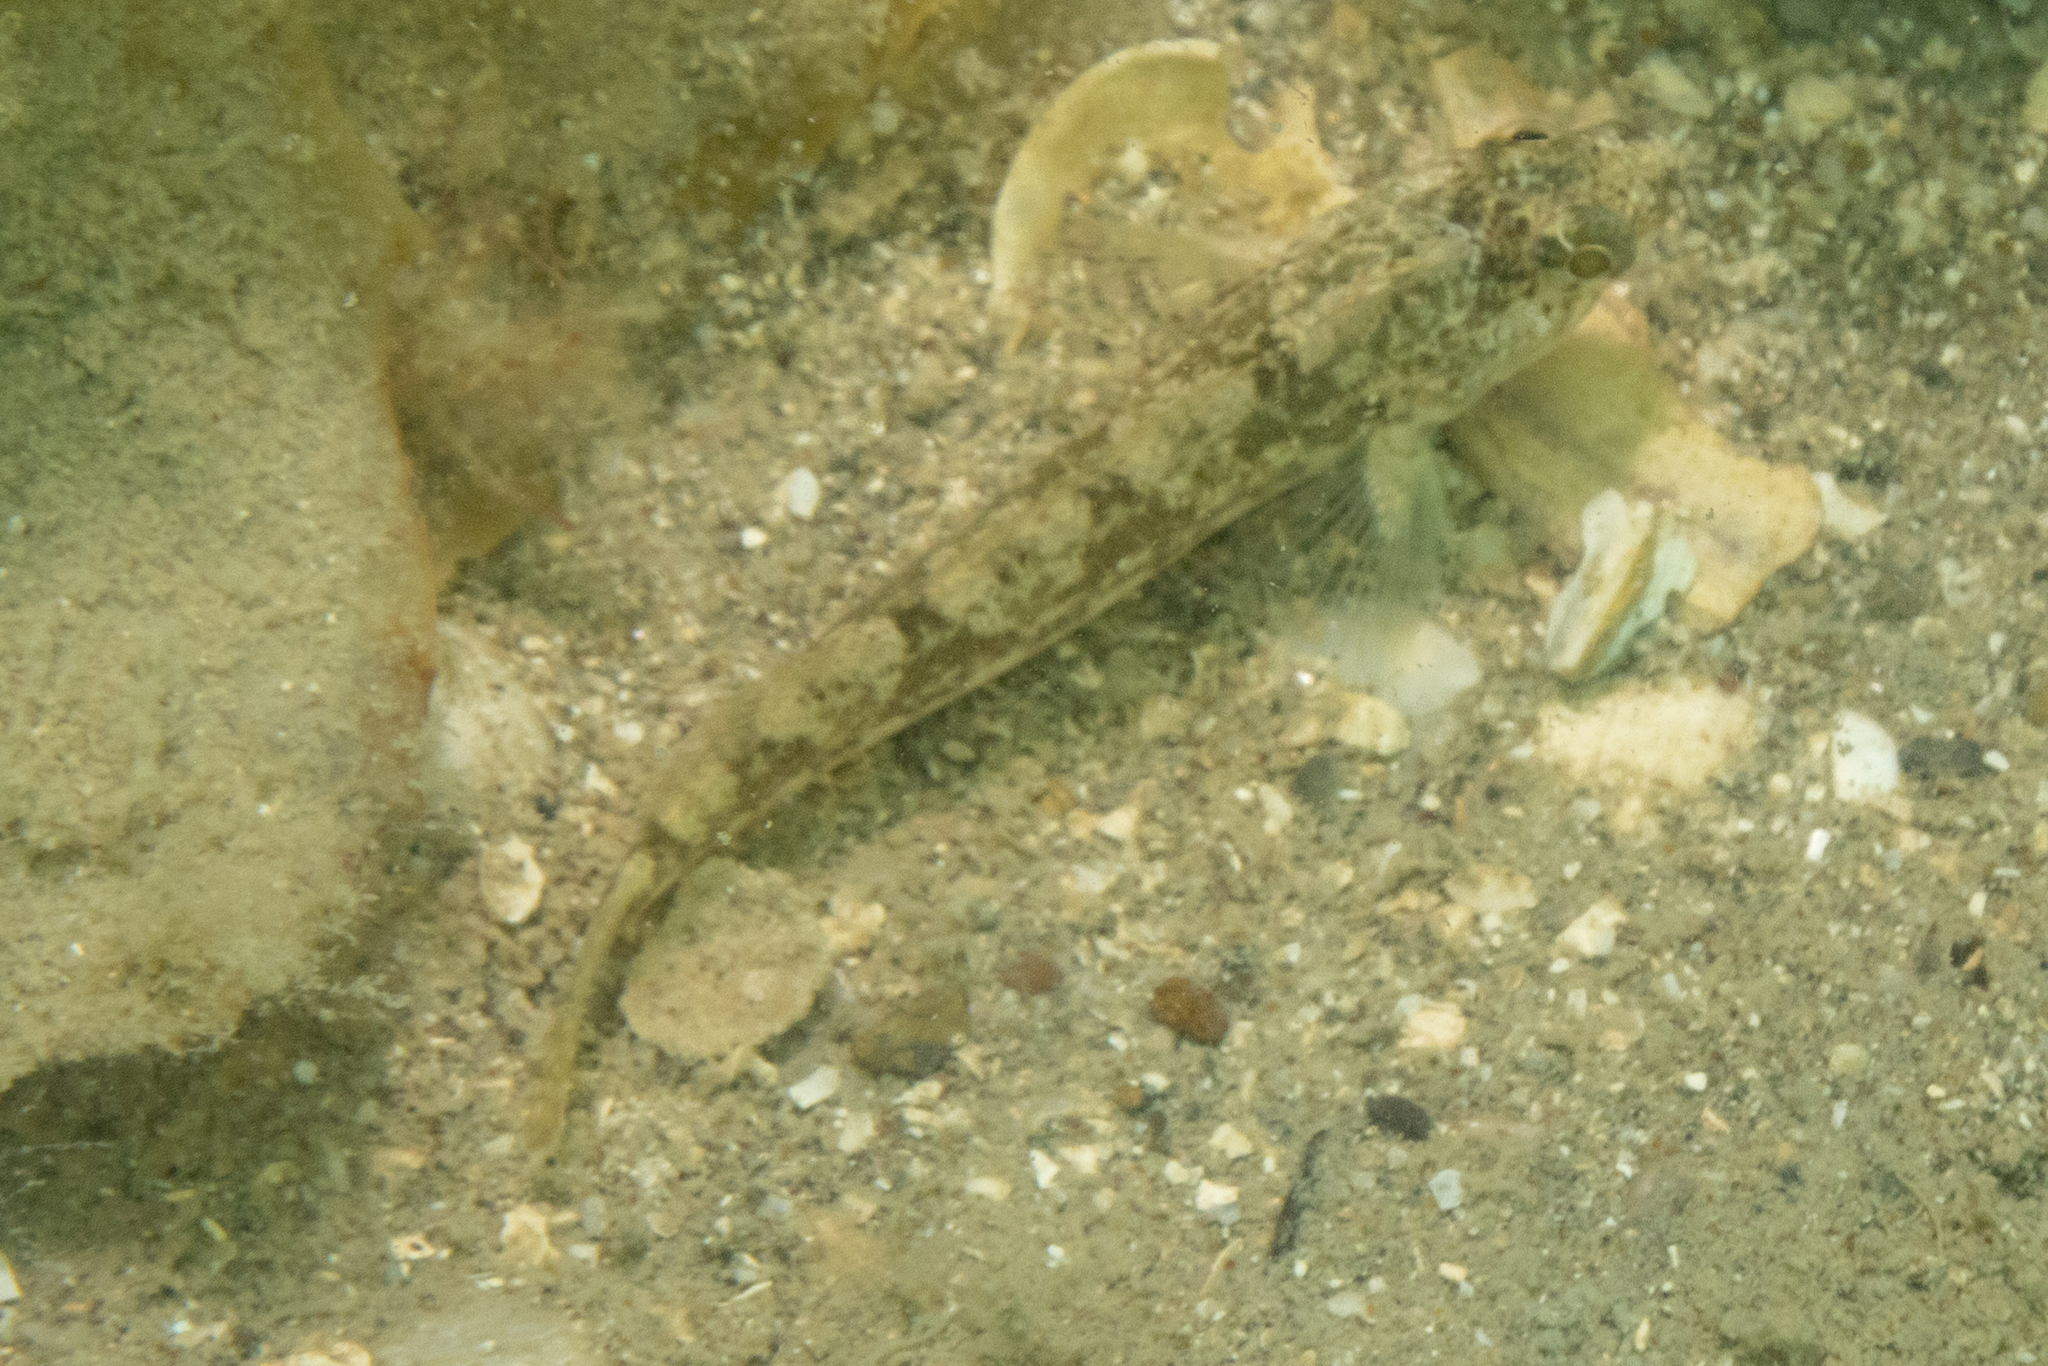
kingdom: Animalia
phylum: Chordata
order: Perciformes
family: Tripterygiidae
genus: Forsterygion
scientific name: Forsterygion capito
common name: Spotted robust triplefin
